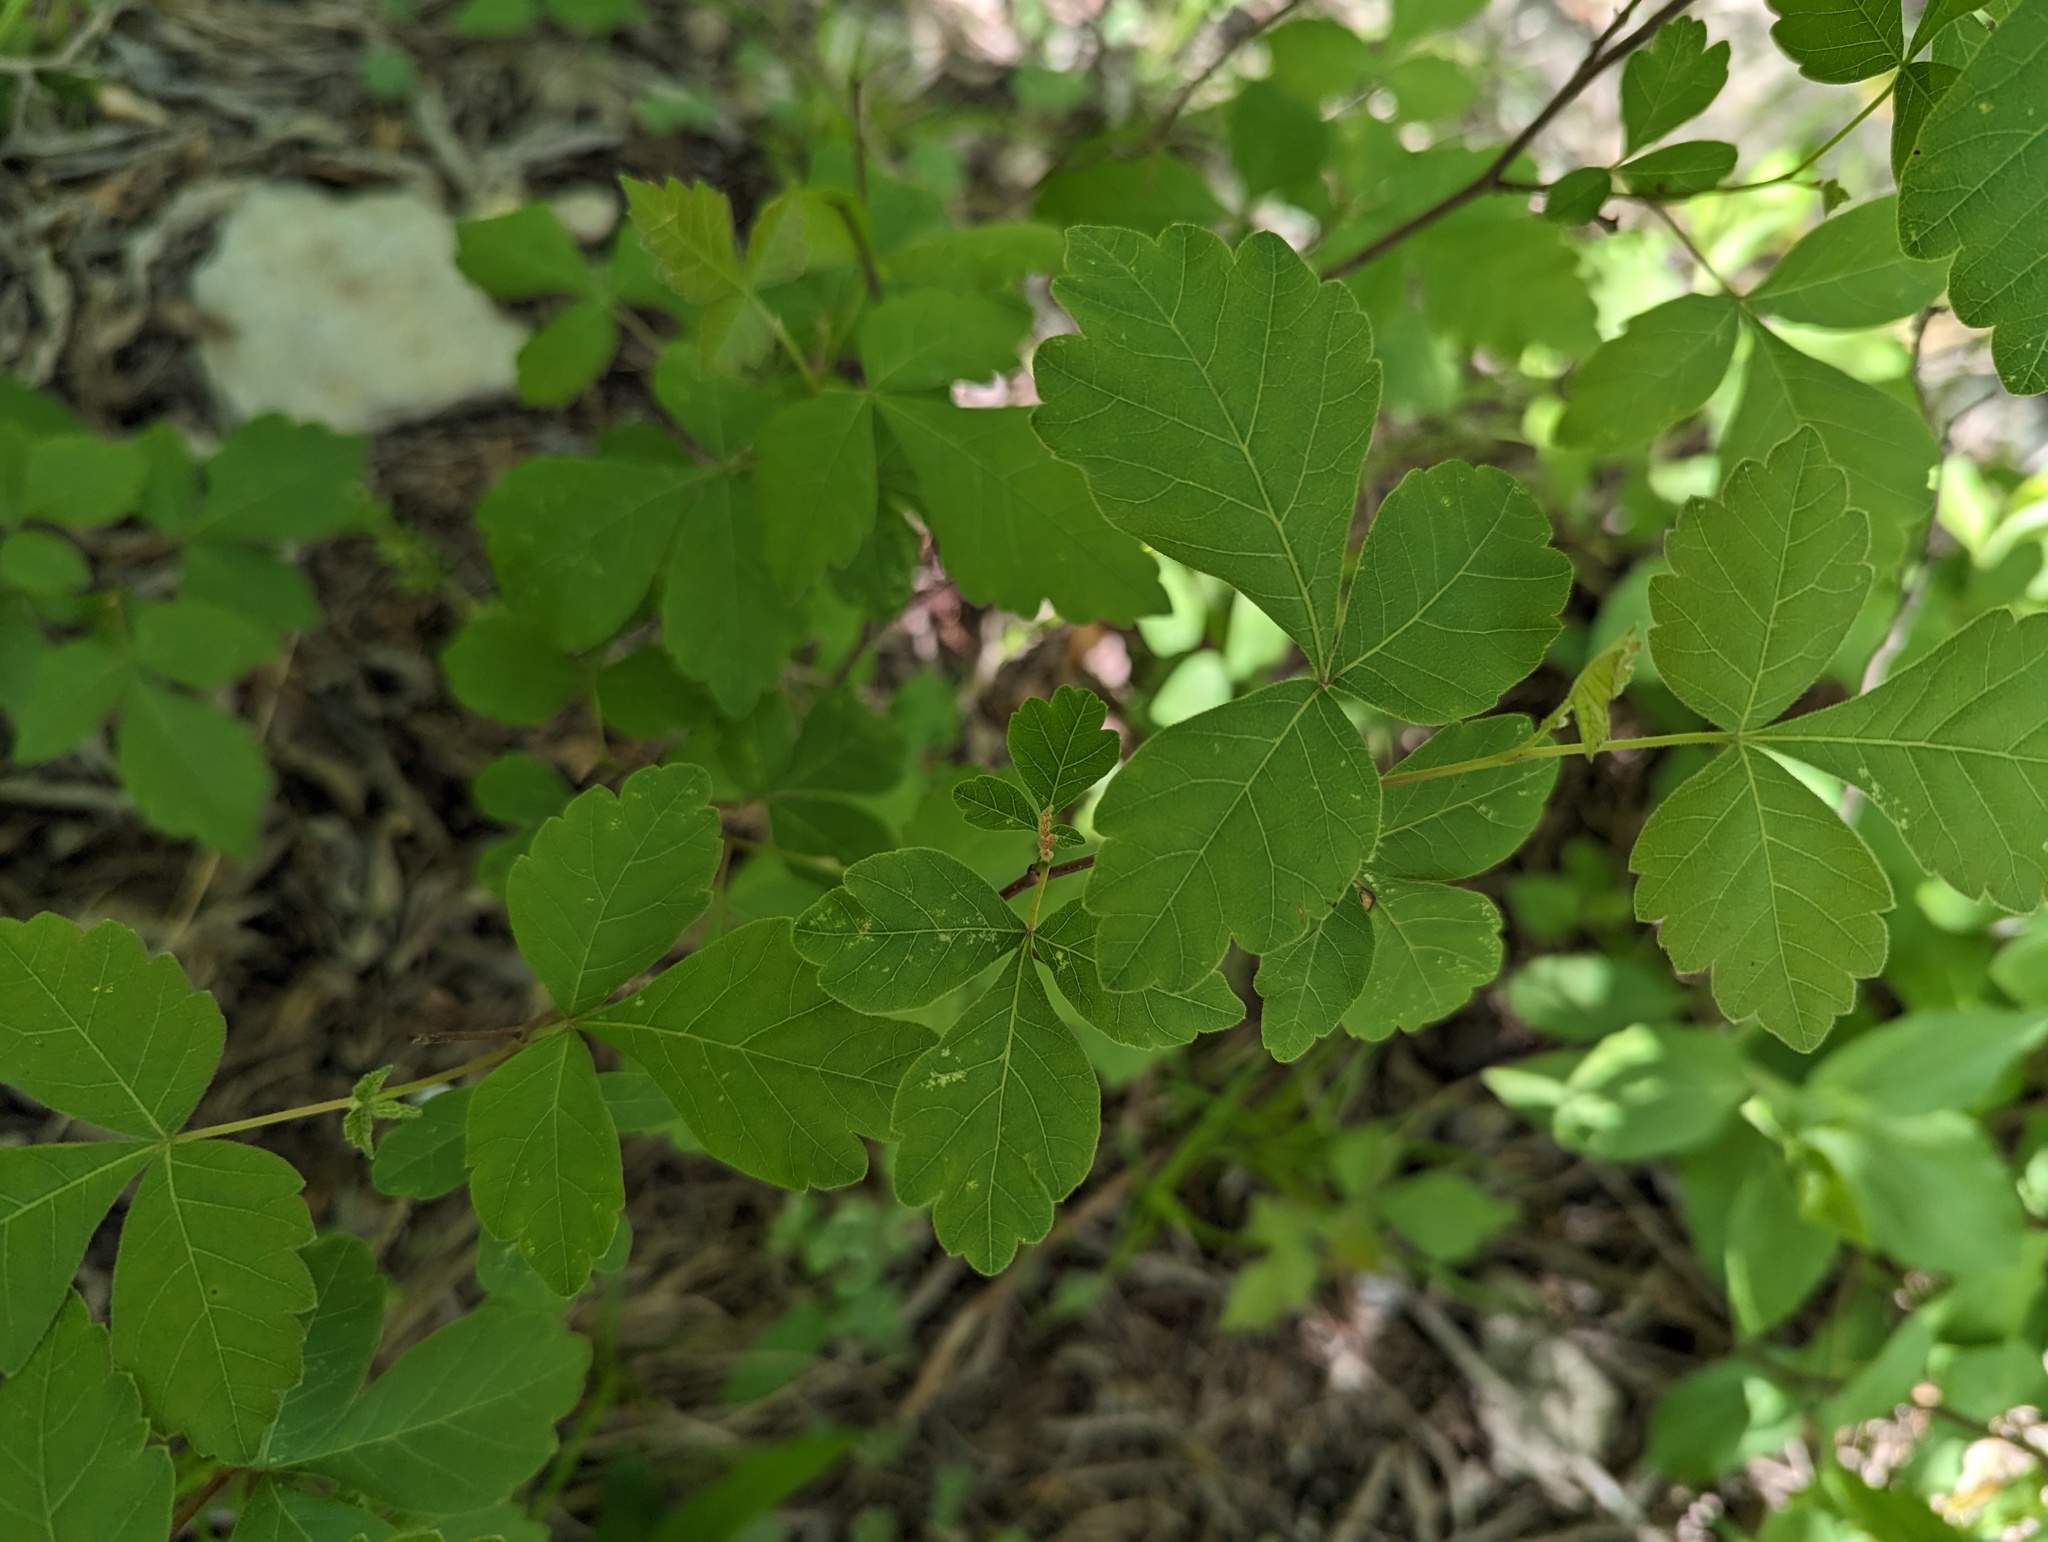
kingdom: Plantae
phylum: Tracheophyta
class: Magnoliopsida
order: Sapindales
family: Anacardiaceae
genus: Rhus
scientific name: Rhus aromatica
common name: Aromatic sumac
